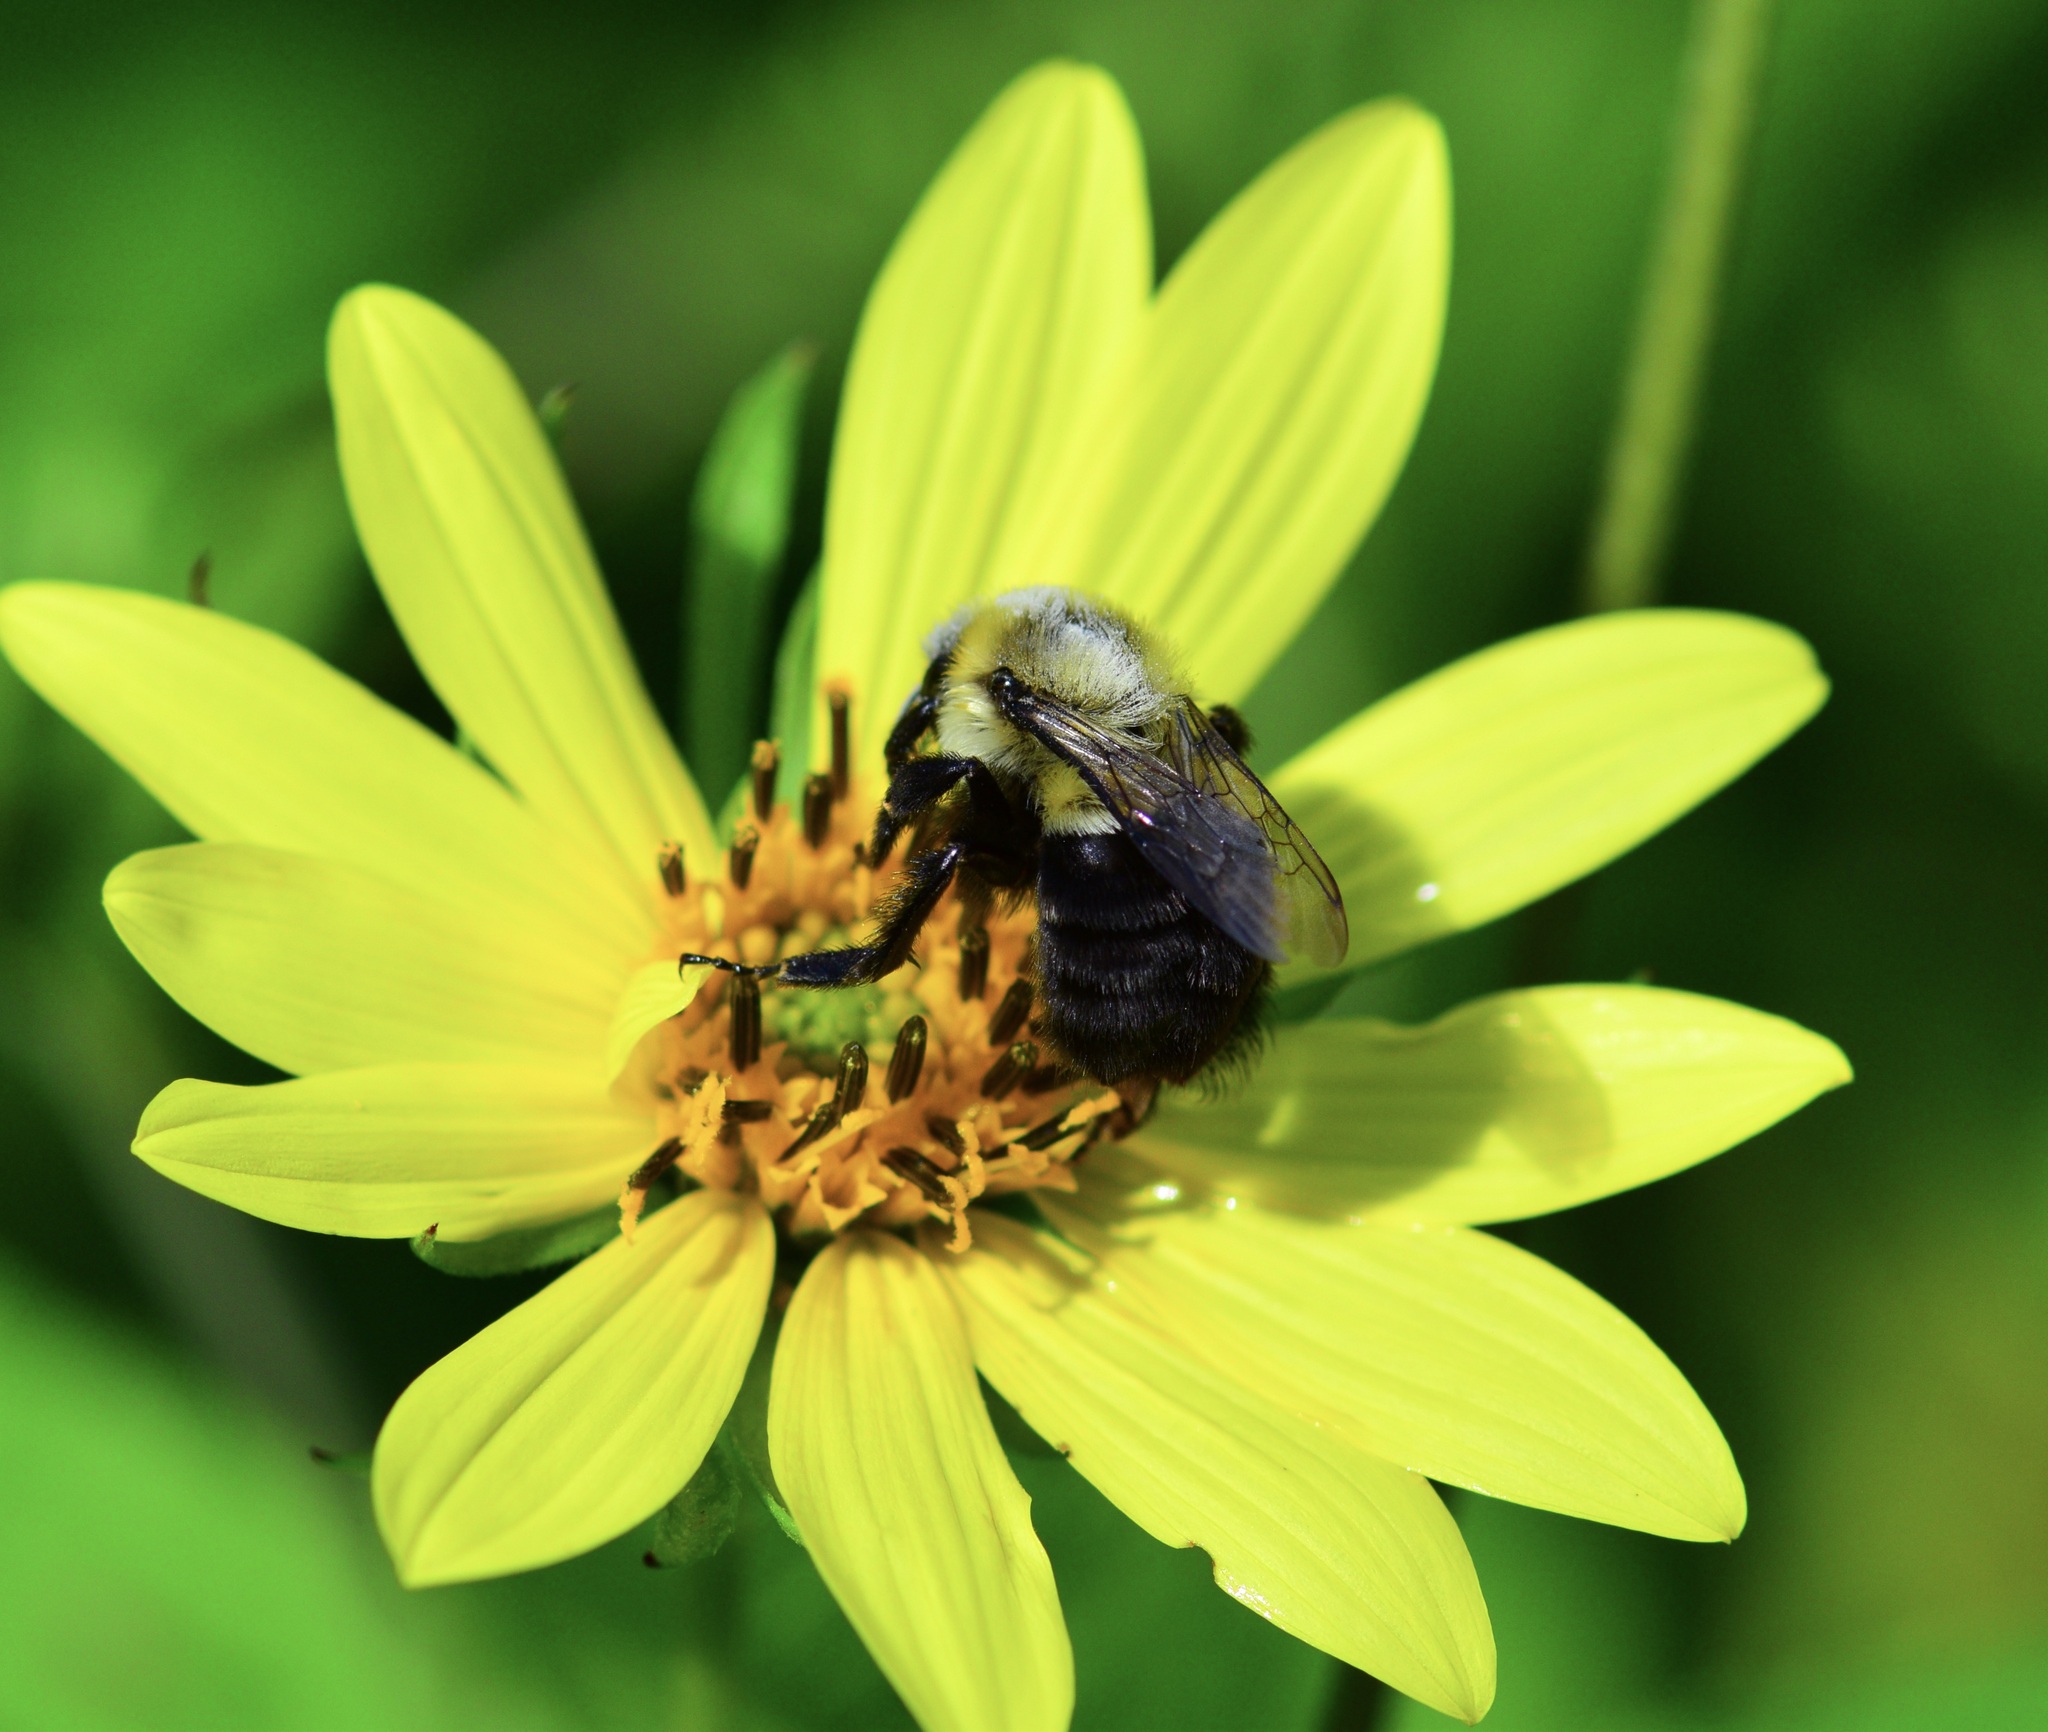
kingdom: Animalia
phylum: Arthropoda
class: Insecta
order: Hymenoptera
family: Apidae
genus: Bombus
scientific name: Bombus impatiens
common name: Common eastern bumble bee
